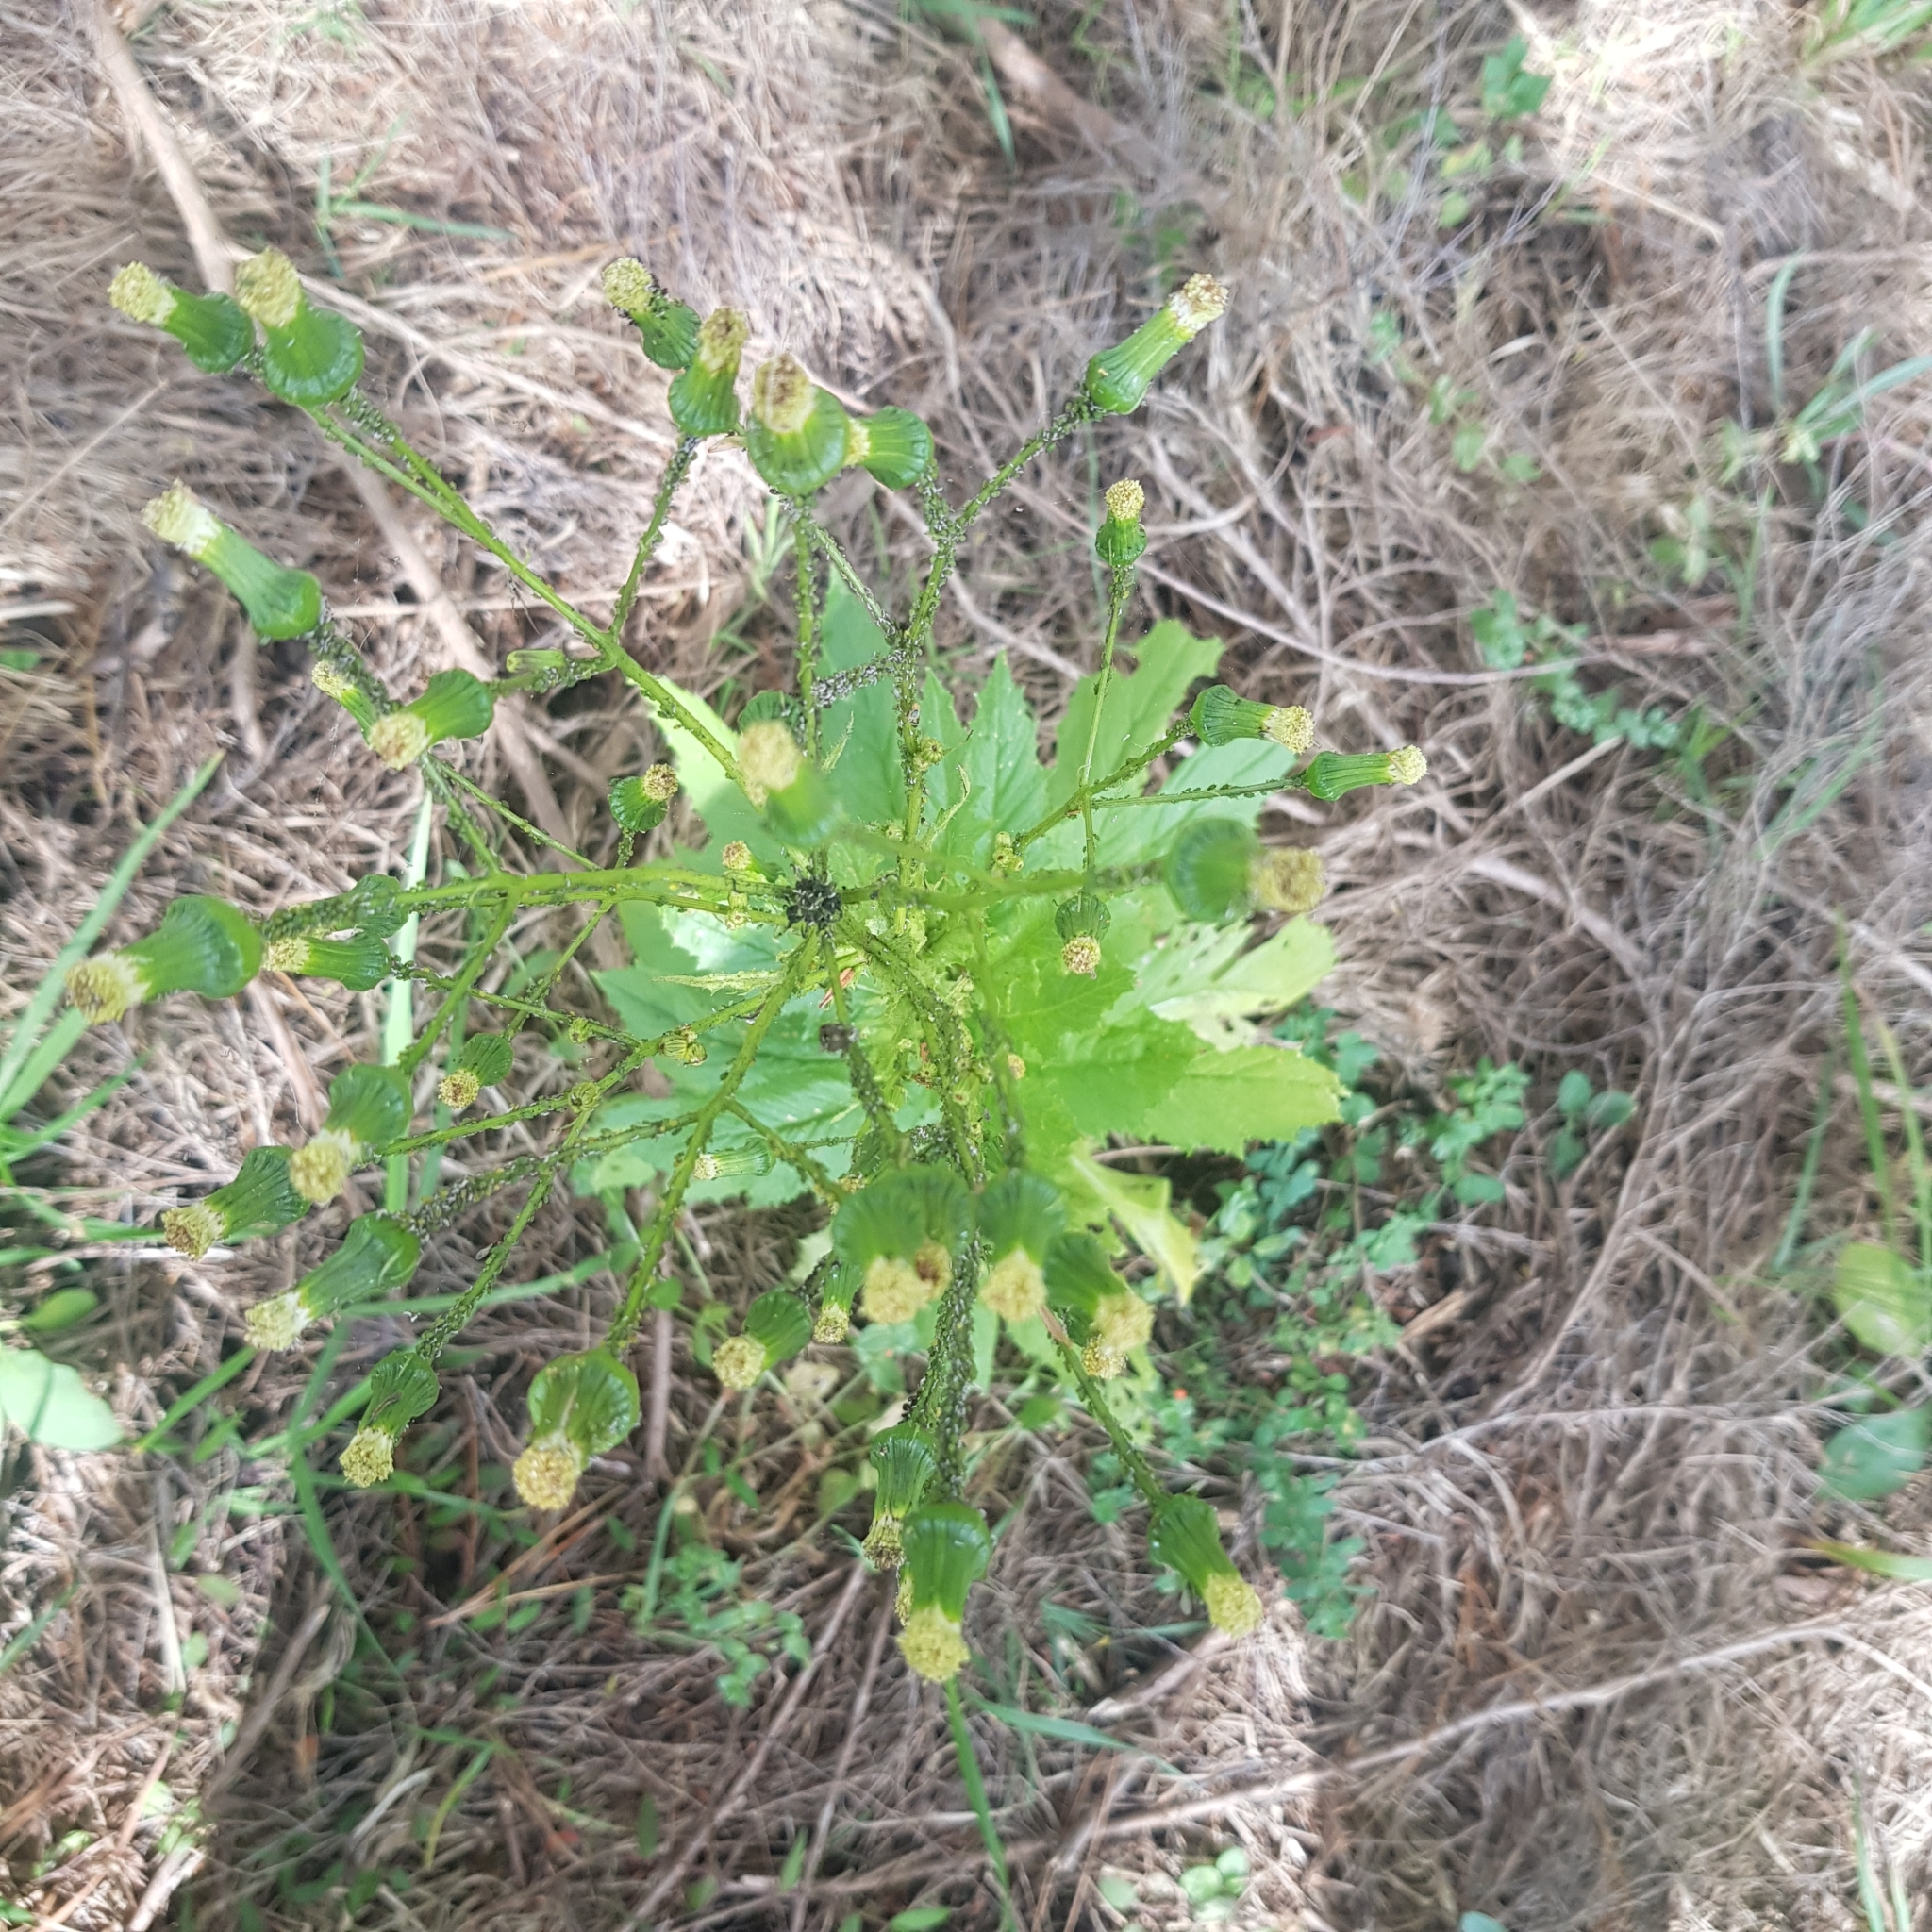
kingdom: Plantae
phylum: Tracheophyta
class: Magnoliopsida
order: Asterales
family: Asteraceae
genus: Erechtites
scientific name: Erechtites hieraciifolius
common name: American burnweed
